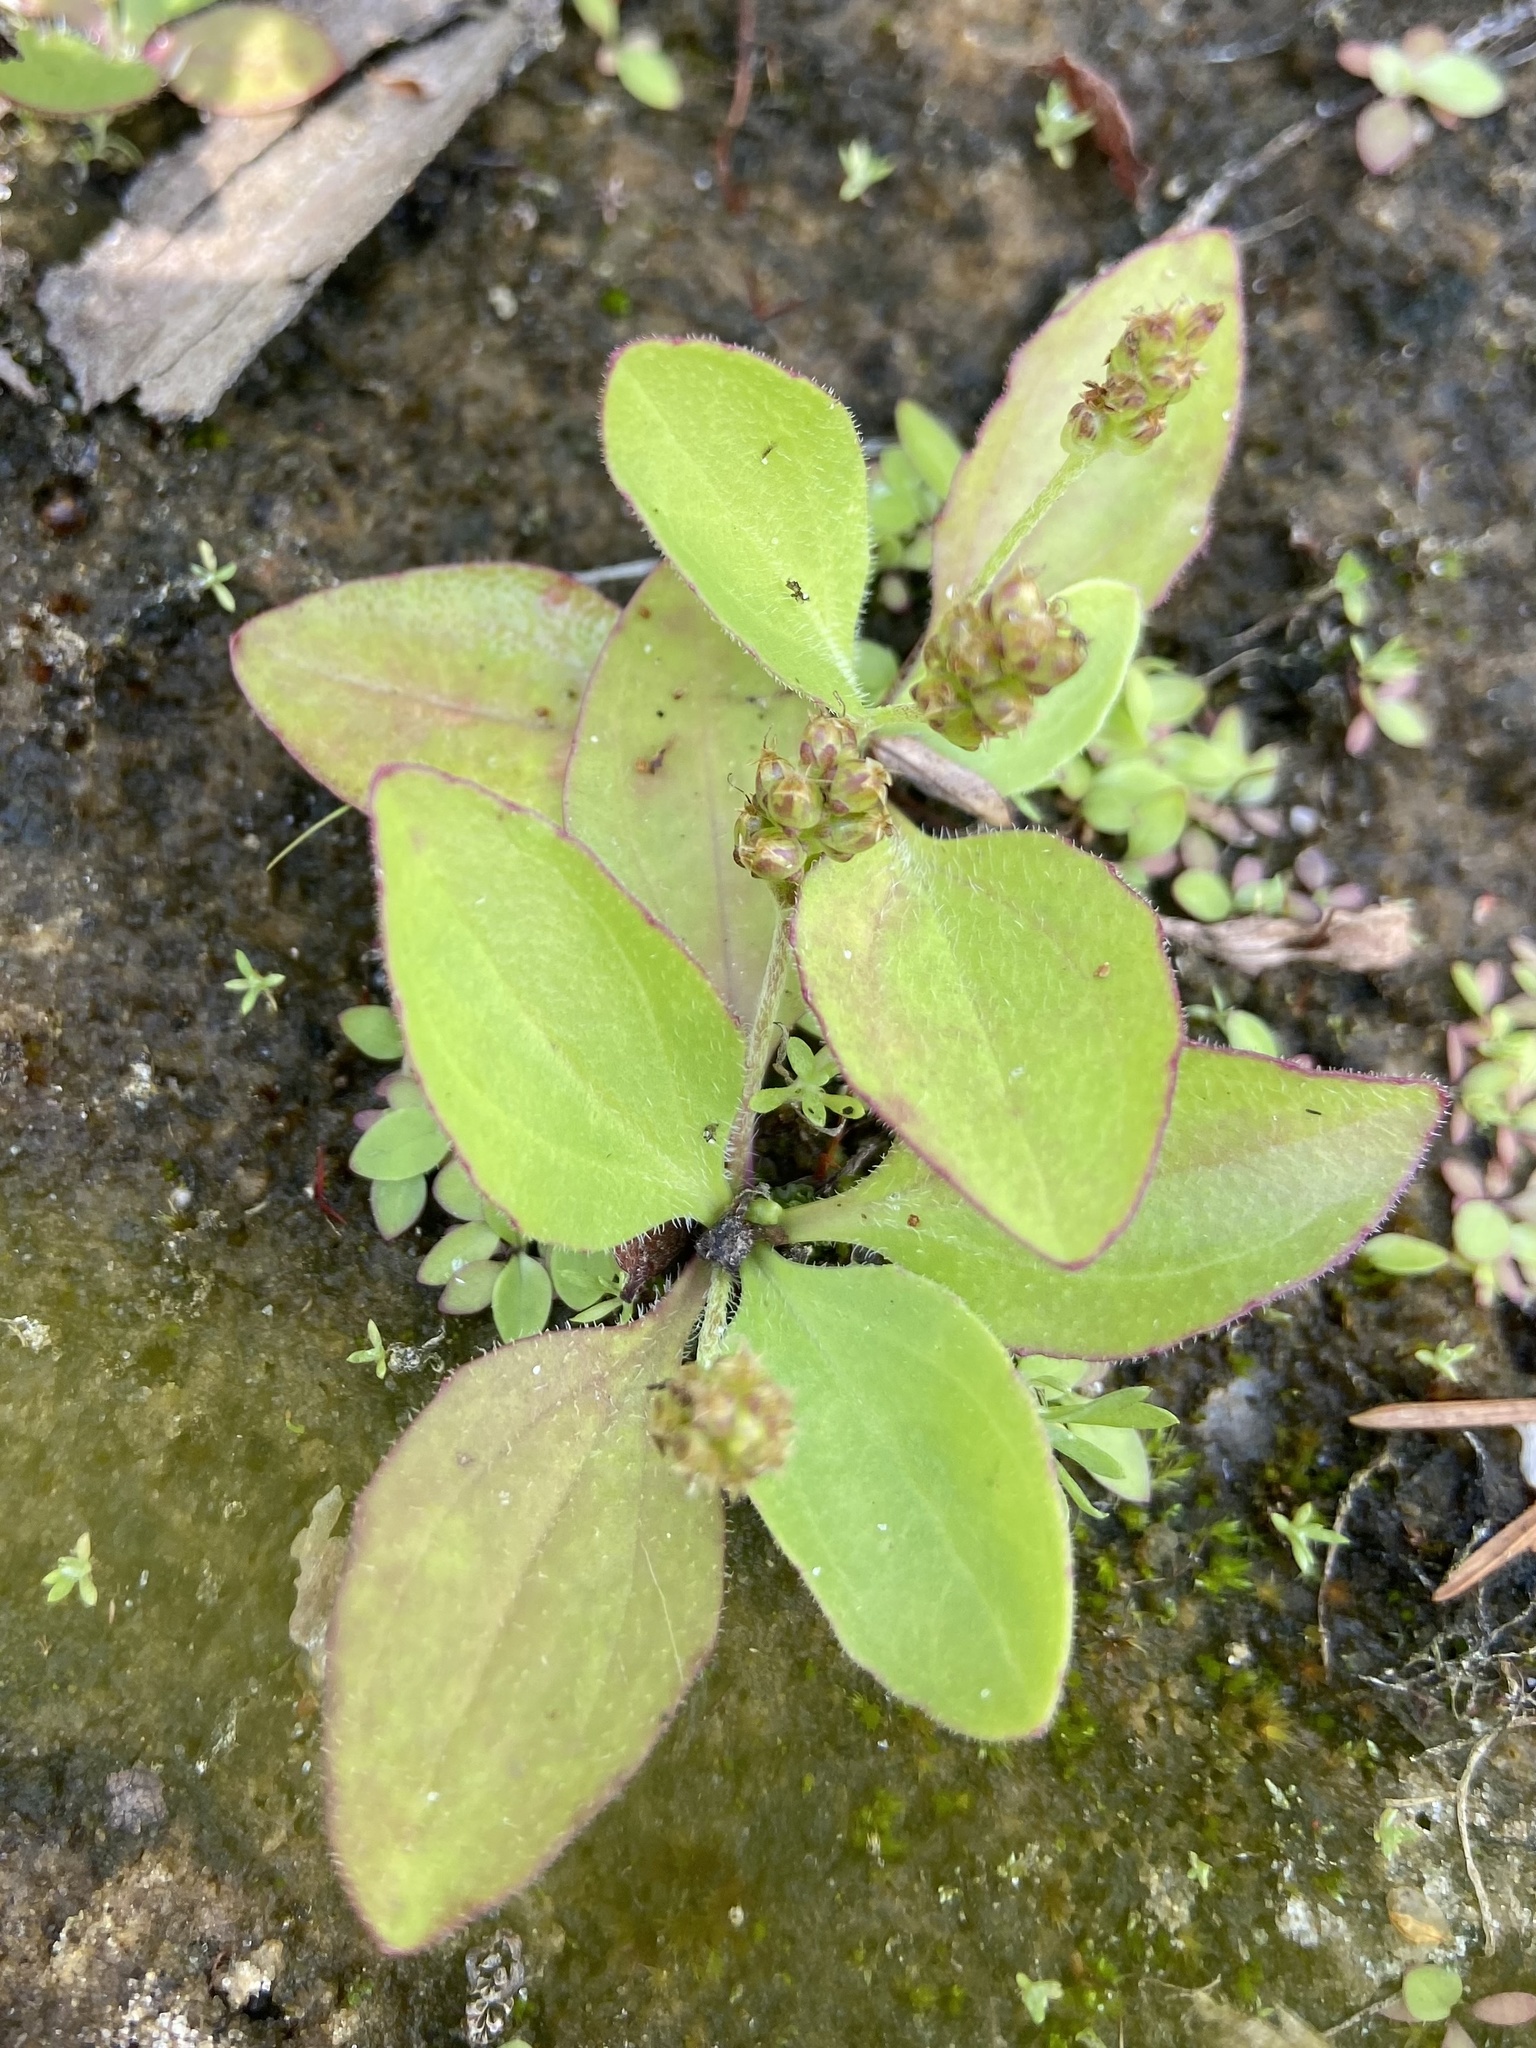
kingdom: Plantae
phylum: Tracheophyta
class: Magnoliopsida
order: Lamiales
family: Plantaginaceae
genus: Plantago
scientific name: Plantago uliginosa
